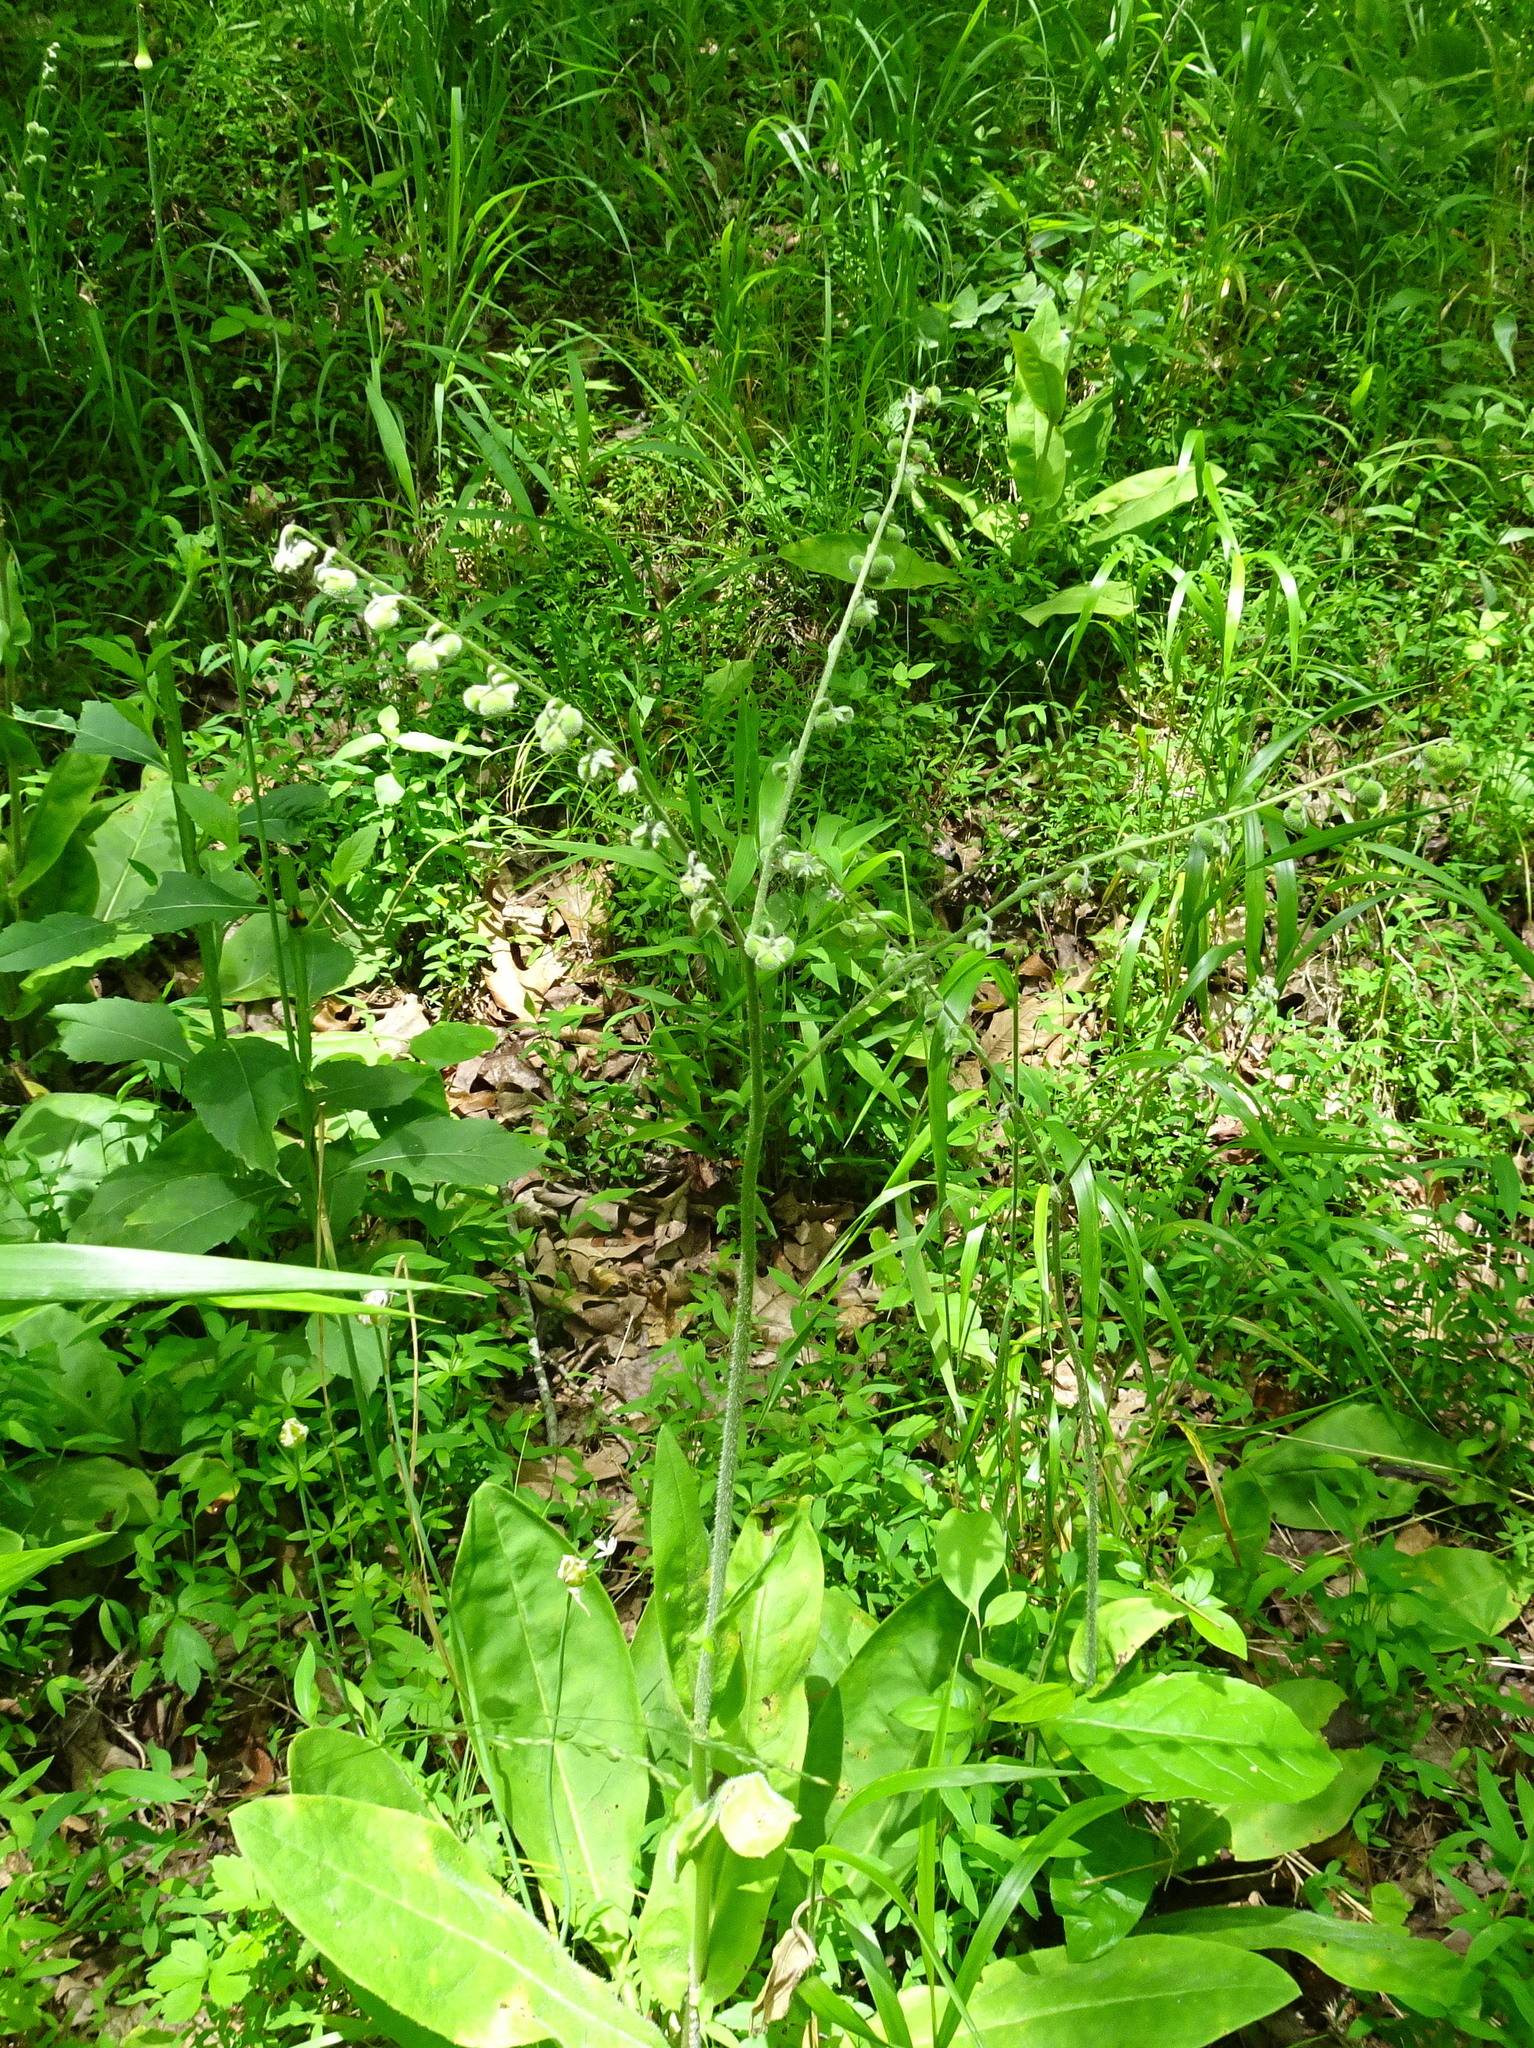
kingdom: Plantae
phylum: Tracheophyta
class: Magnoliopsida
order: Boraginales
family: Boraginaceae
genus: Andersonglossum
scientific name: Andersonglossum virginianum
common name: Wild comfrey
